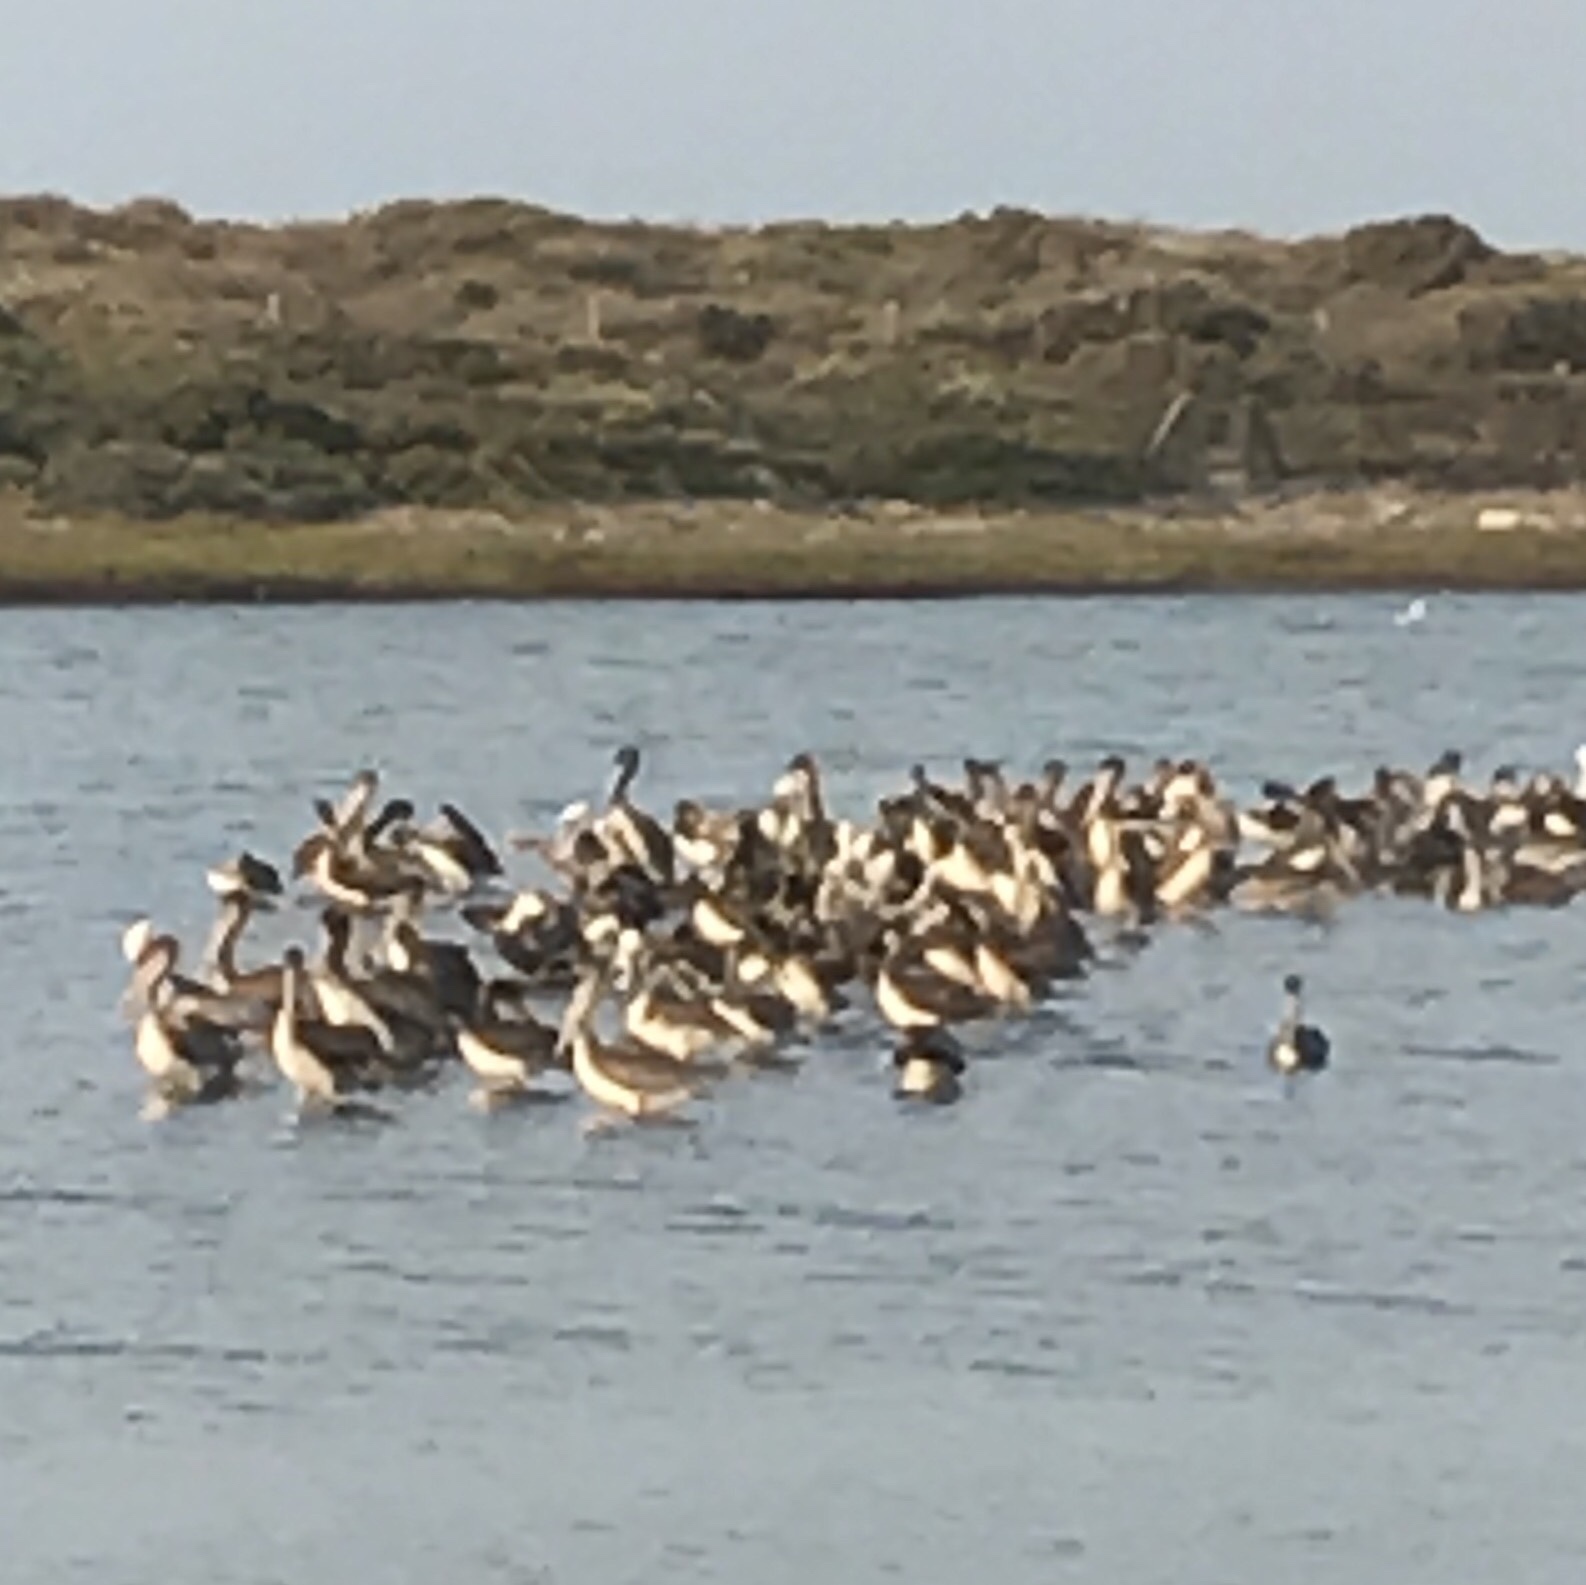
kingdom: Animalia
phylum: Chordata
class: Aves
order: Pelecaniformes
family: Pelecanidae
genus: Pelecanus
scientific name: Pelecanus occidentalis
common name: Brown pelican
